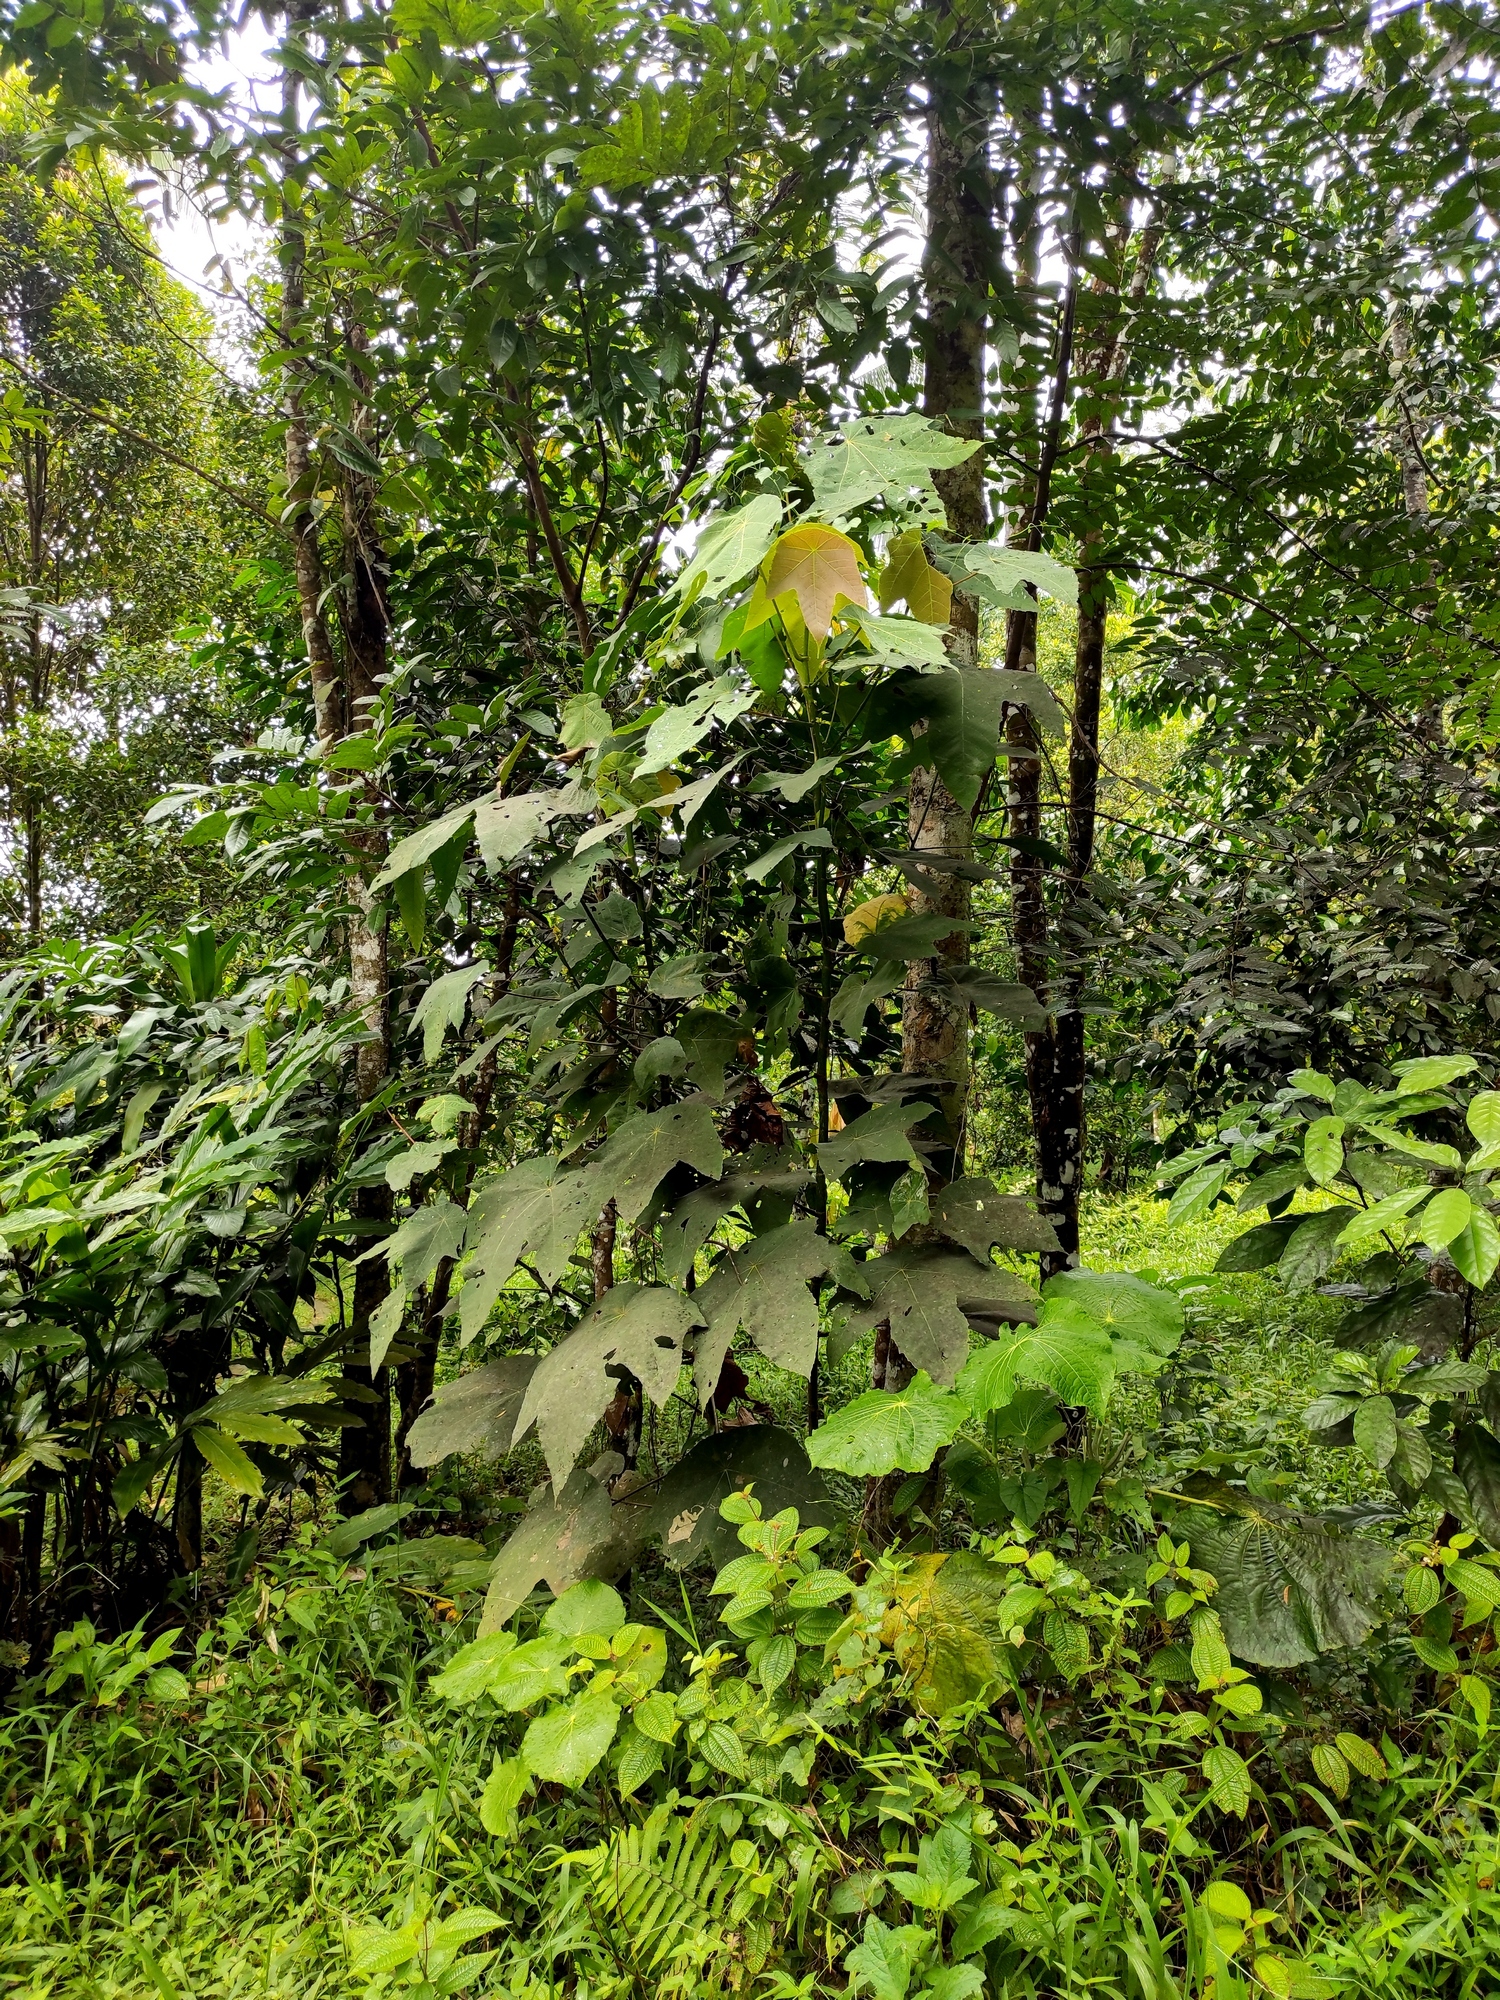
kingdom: Plantae
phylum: Tracheophyta
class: Magnoliopsida
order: Malpighiales
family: Euphorbiaceae
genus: Macaranga
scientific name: Macaranga triloba
